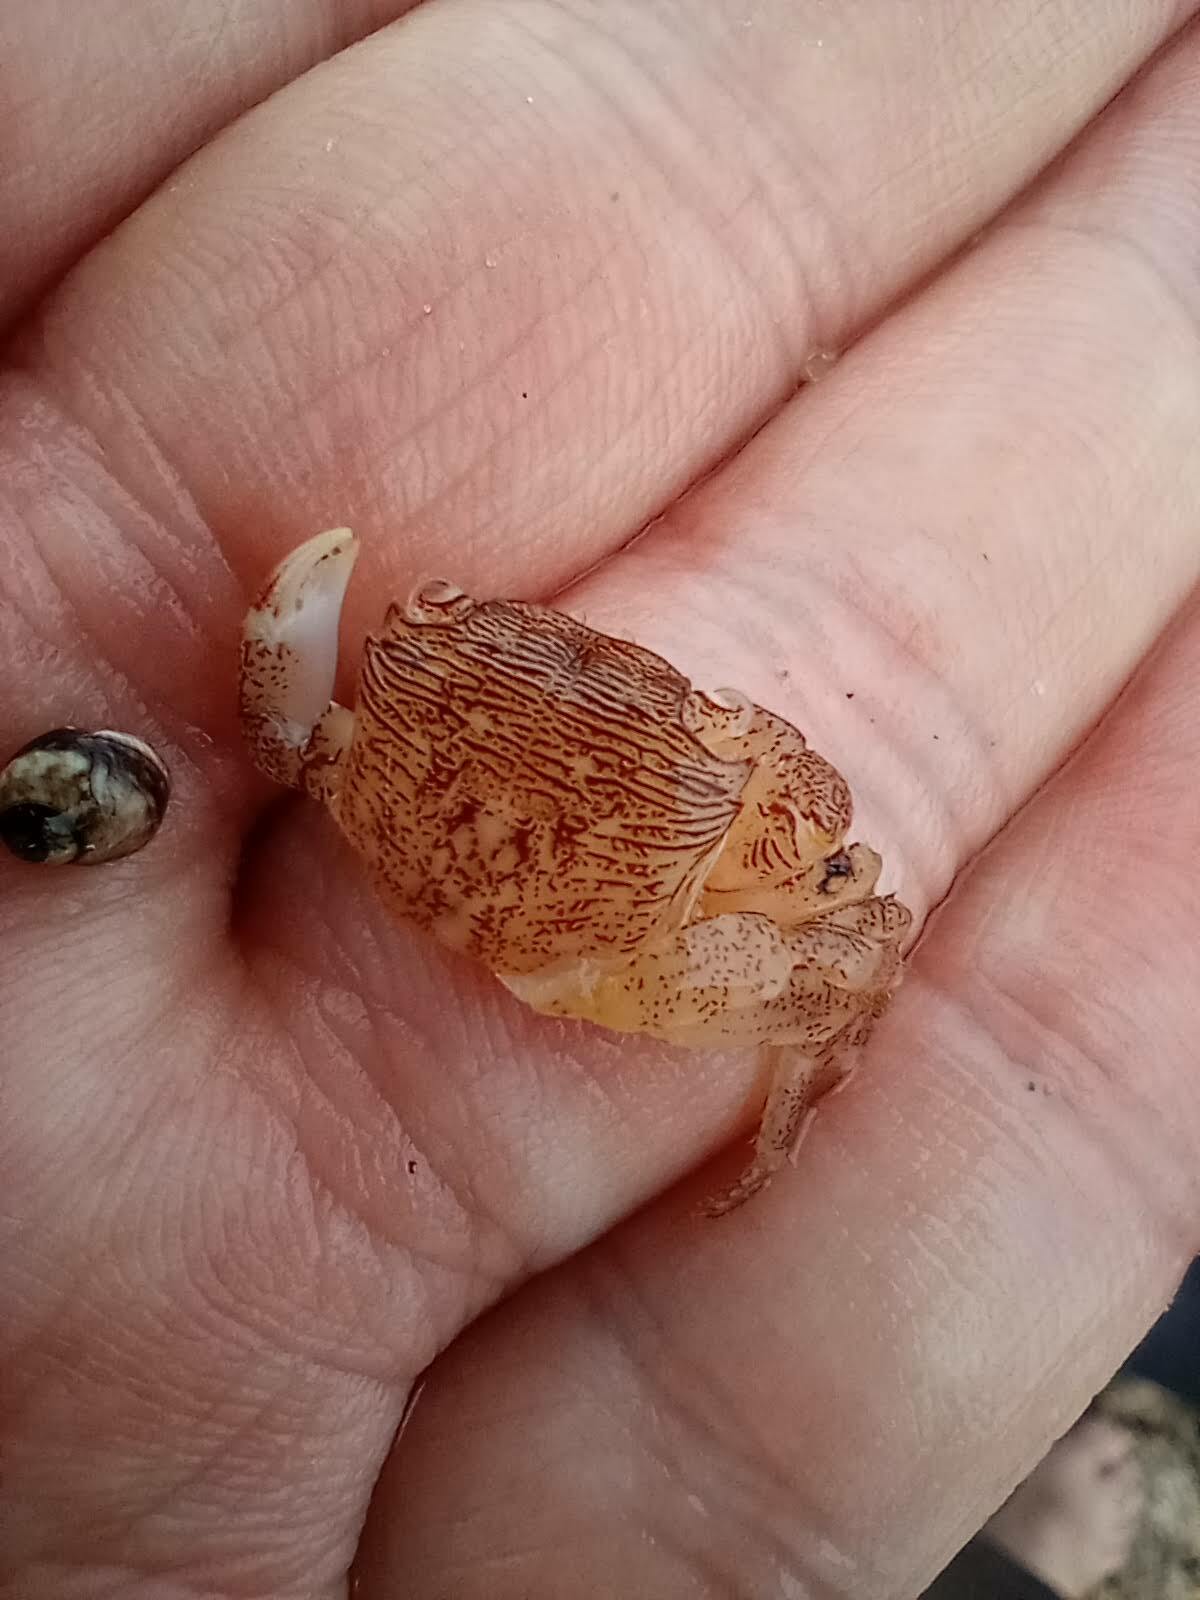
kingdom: Animalia
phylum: Arthropoda
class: Malacostraca
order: Decapoda
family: Grapsidae
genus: Pachygrapsus
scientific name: Pachygrapsus crassipes
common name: Striped shore crab
